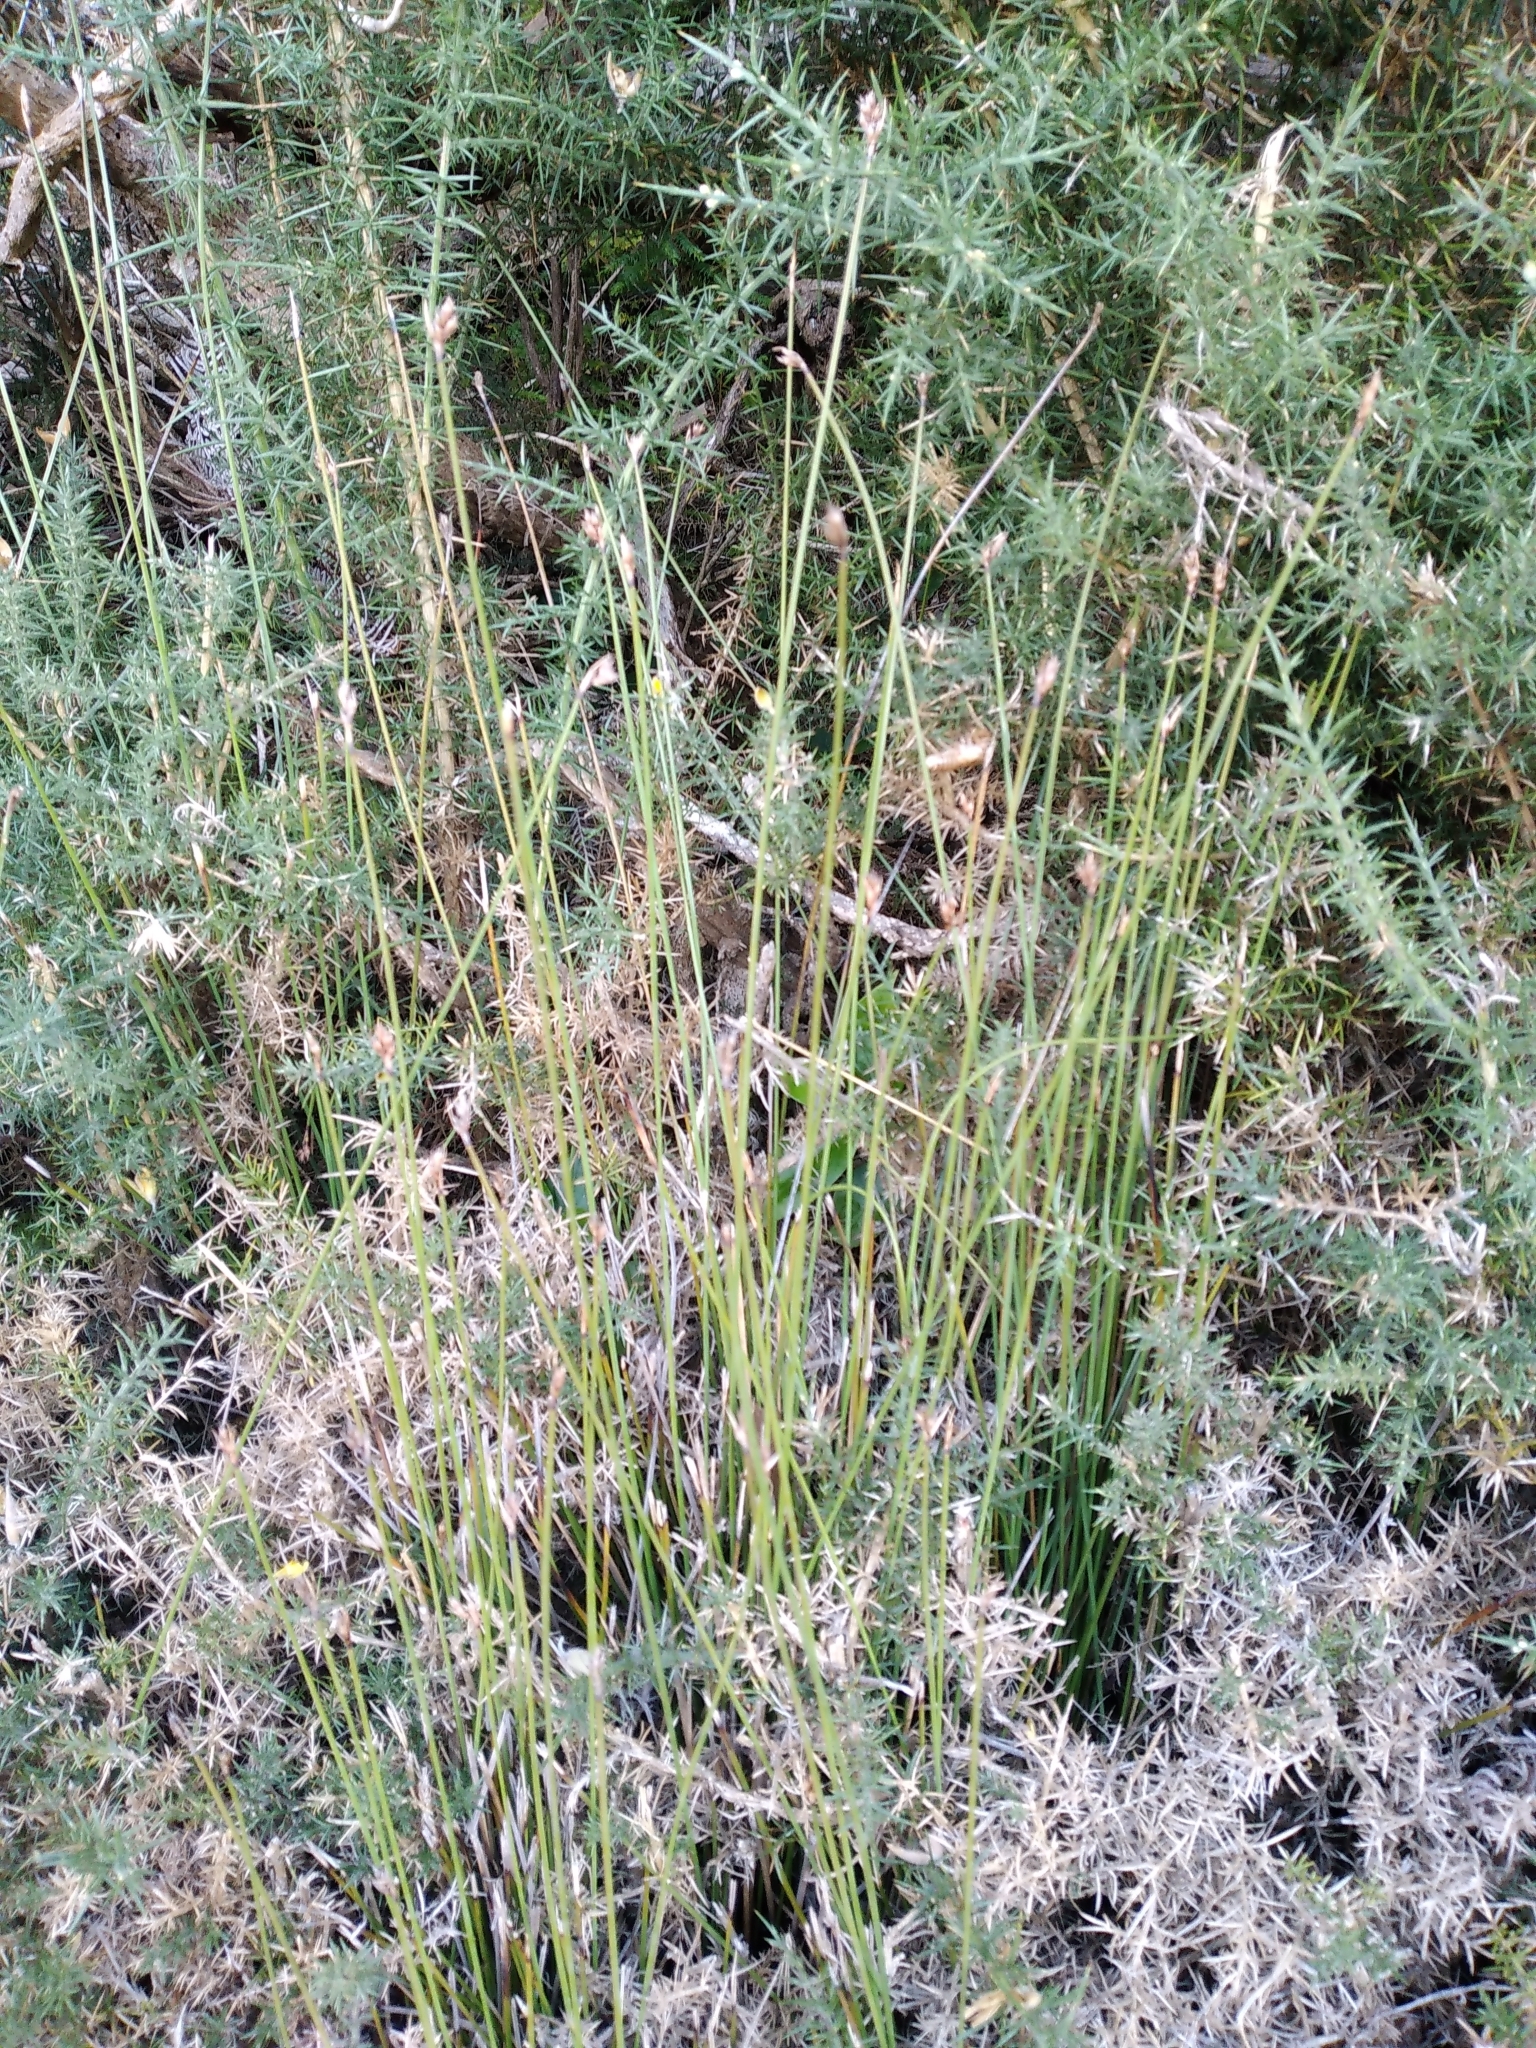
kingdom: Plantae
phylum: Tracheophyta
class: Liliopsida
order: Poales
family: Cyperaceae
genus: Lepidosperma
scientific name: Lepidosperma australe
